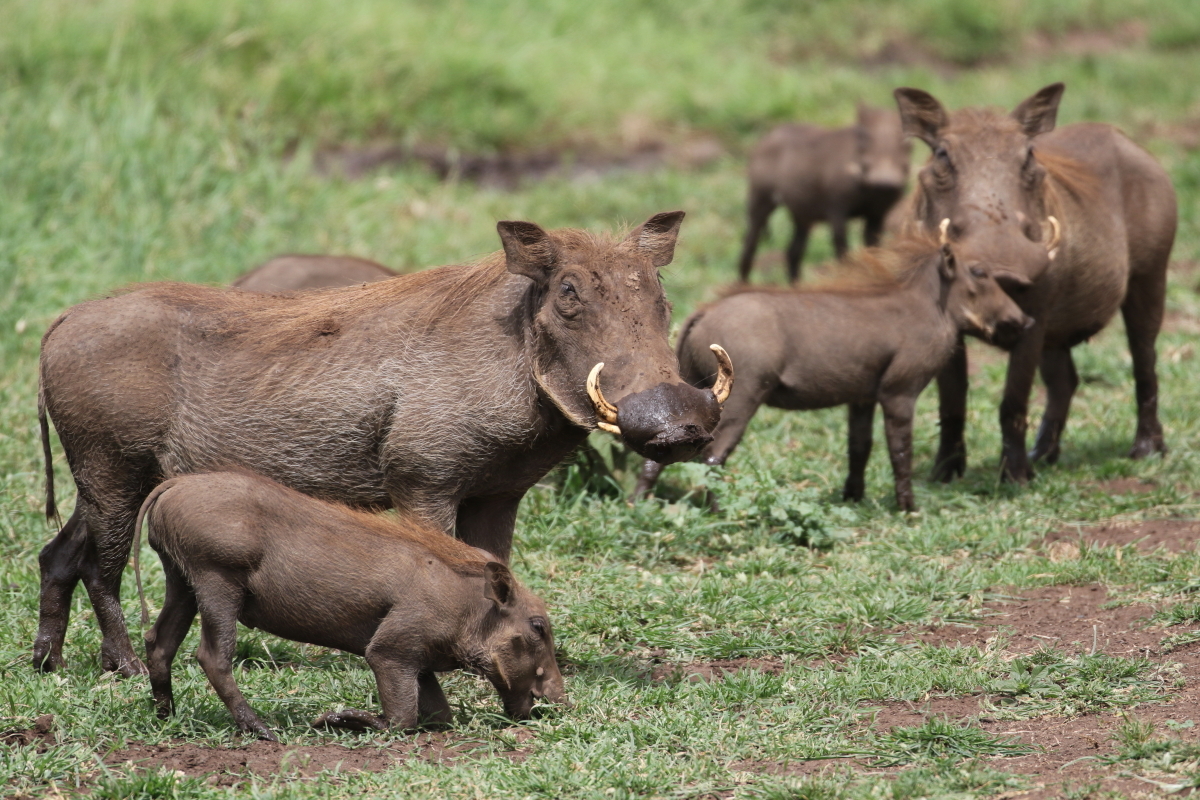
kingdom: Animalia
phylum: Chordata
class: Mammalia
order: Artiodactyla
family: Suidae
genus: Phacochoerus
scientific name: Phacochoerus africanus
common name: Common warthog
